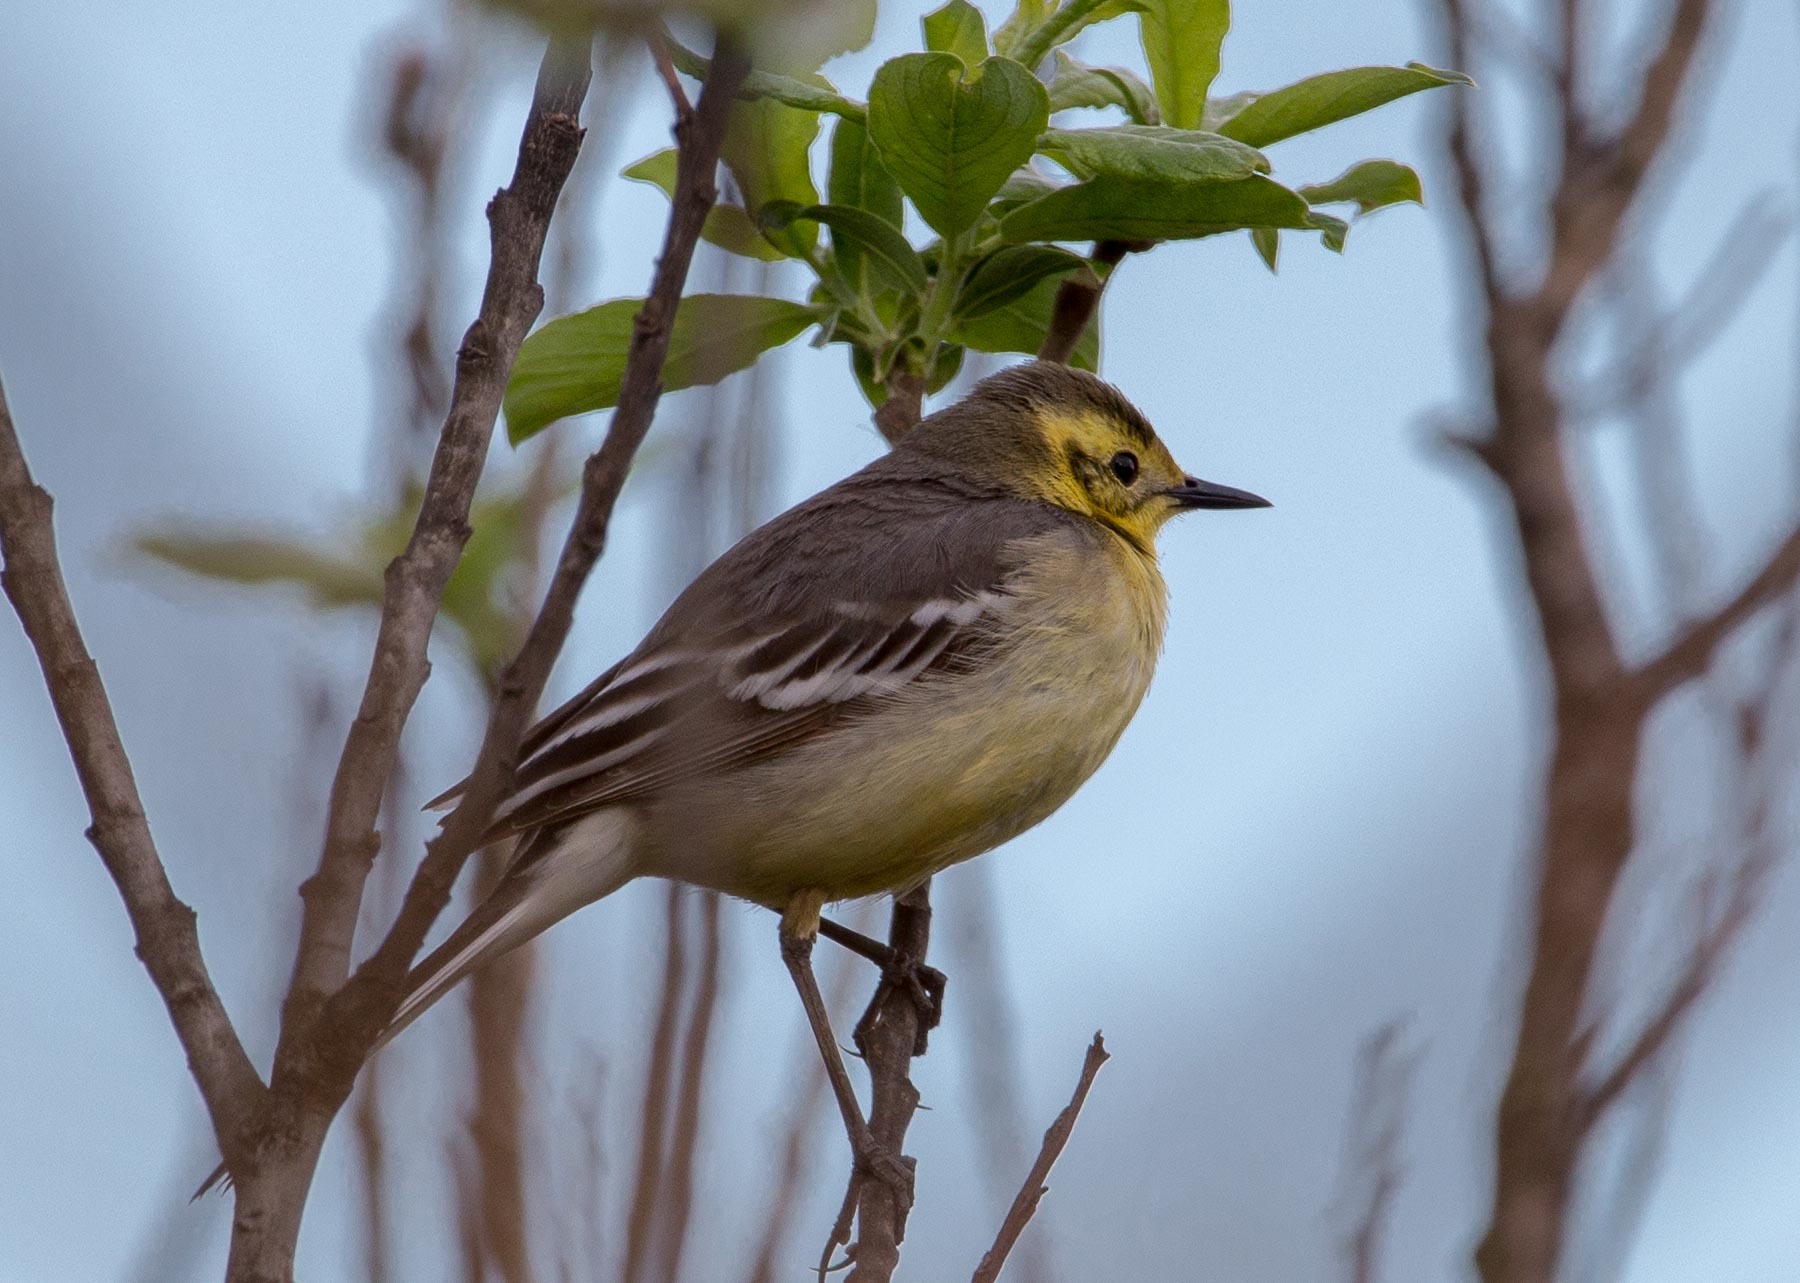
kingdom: Animalia
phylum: Chordata
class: Aves
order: Passeriformes
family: Motacillidae
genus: Motacilla
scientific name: Motacilla citreola
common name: Citrine wagtail
